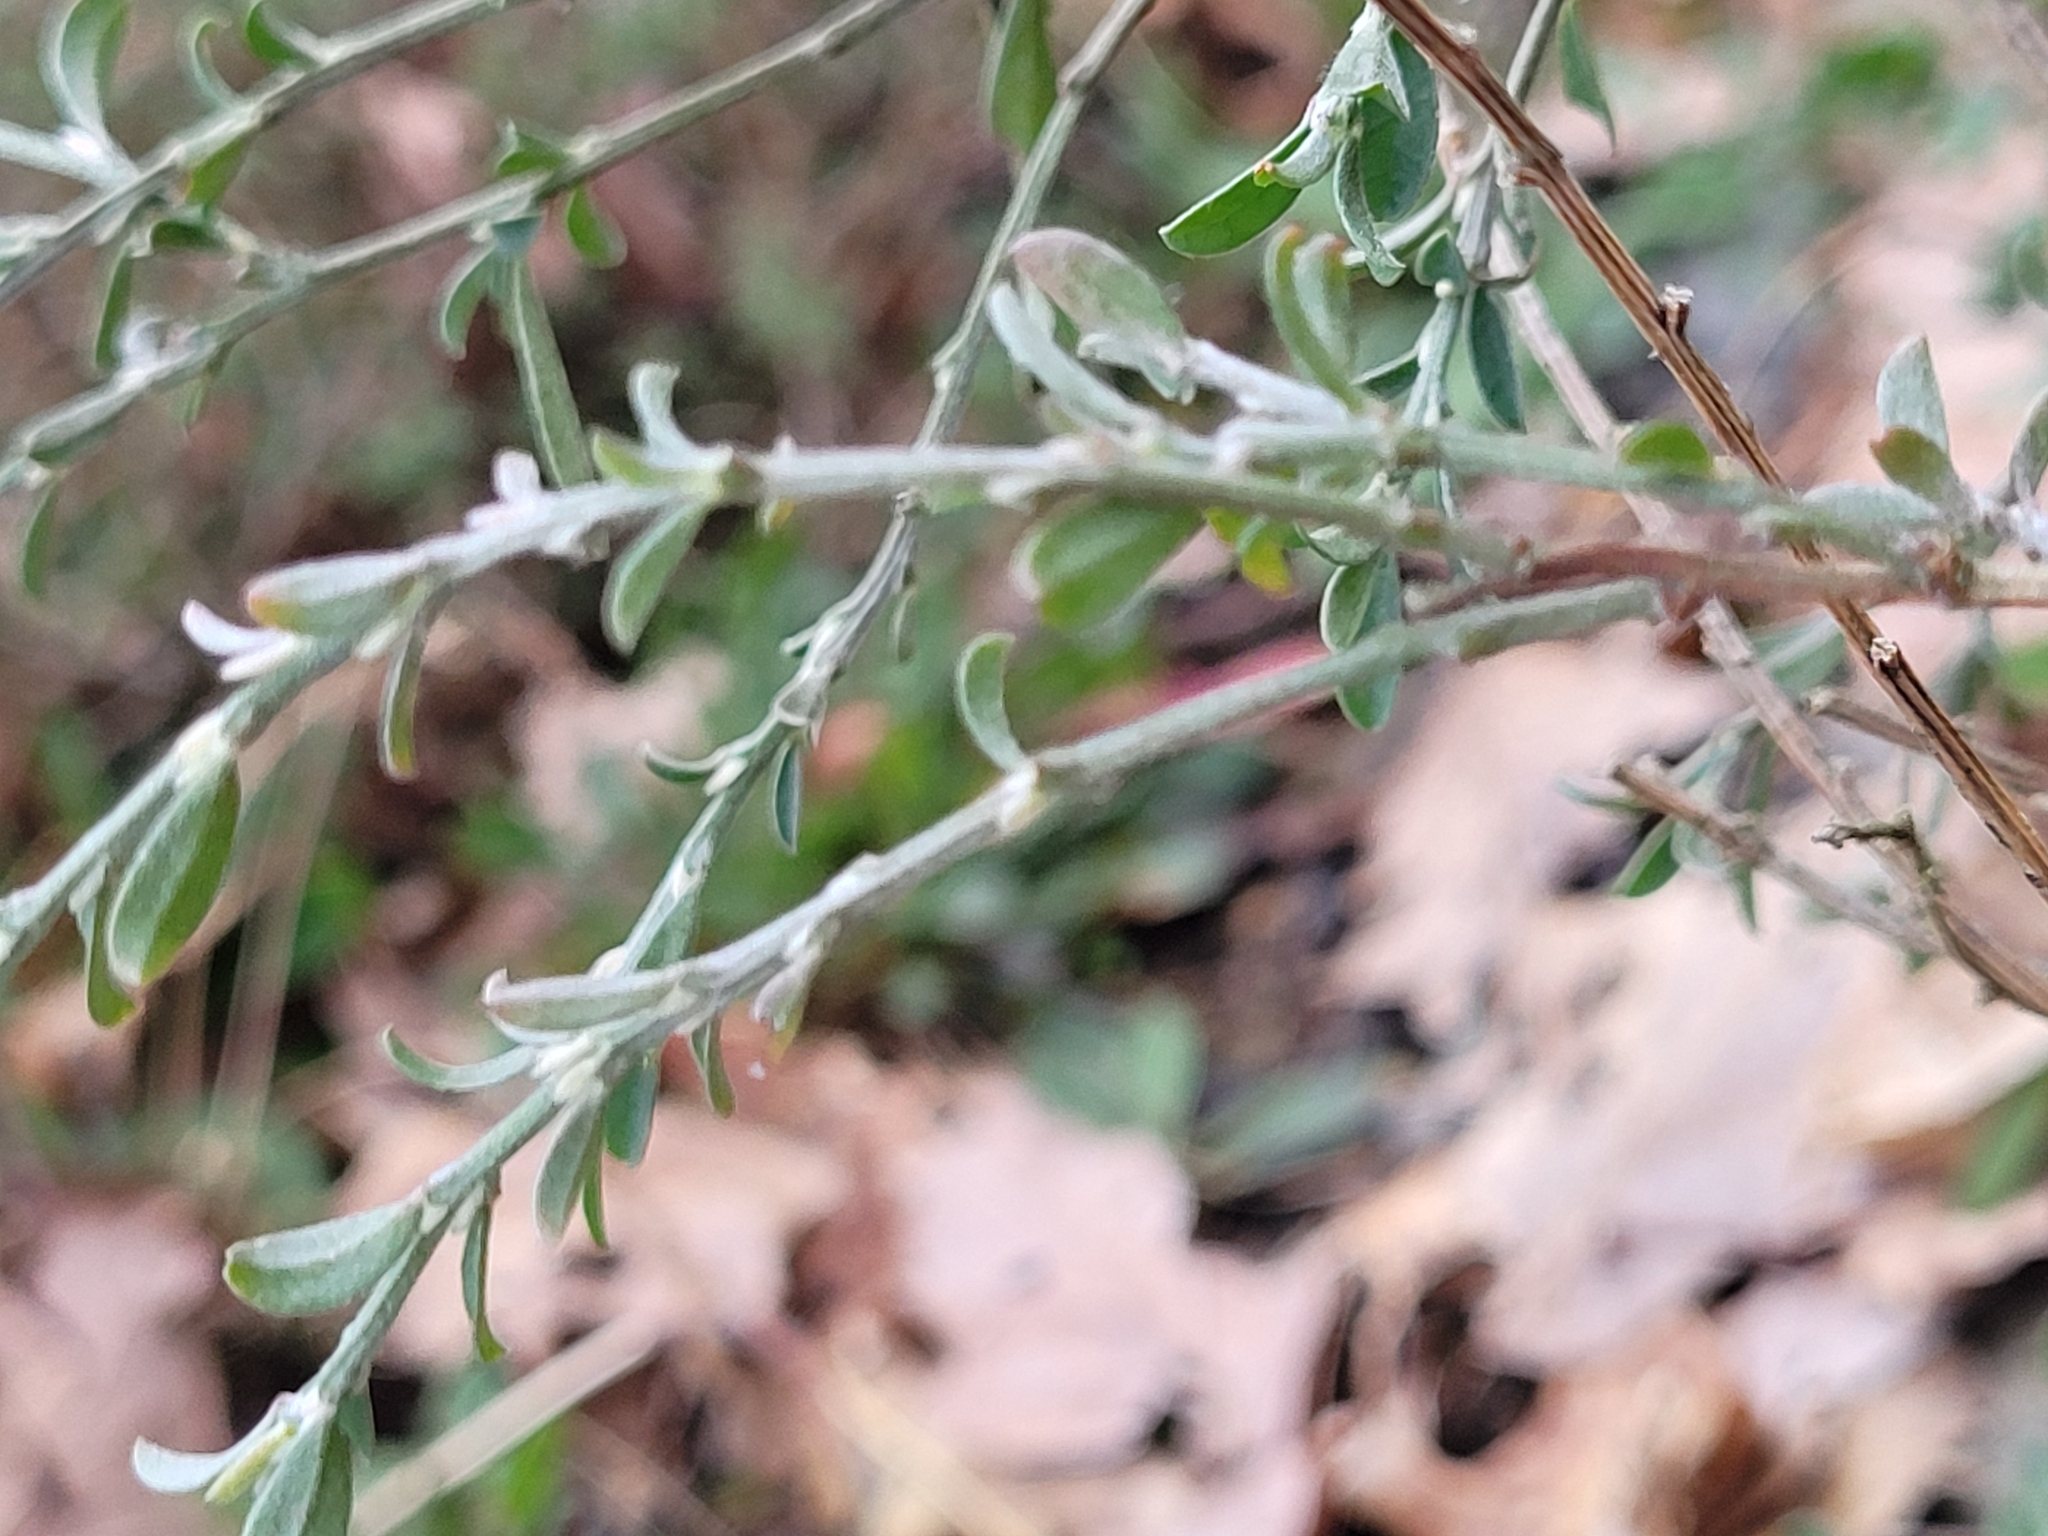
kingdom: Plantae
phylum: Tracheophyta
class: Magnoliopsida
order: Fabales
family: Fabaceae
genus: Genista
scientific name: Genista pilosa
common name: Hairy greenweed
